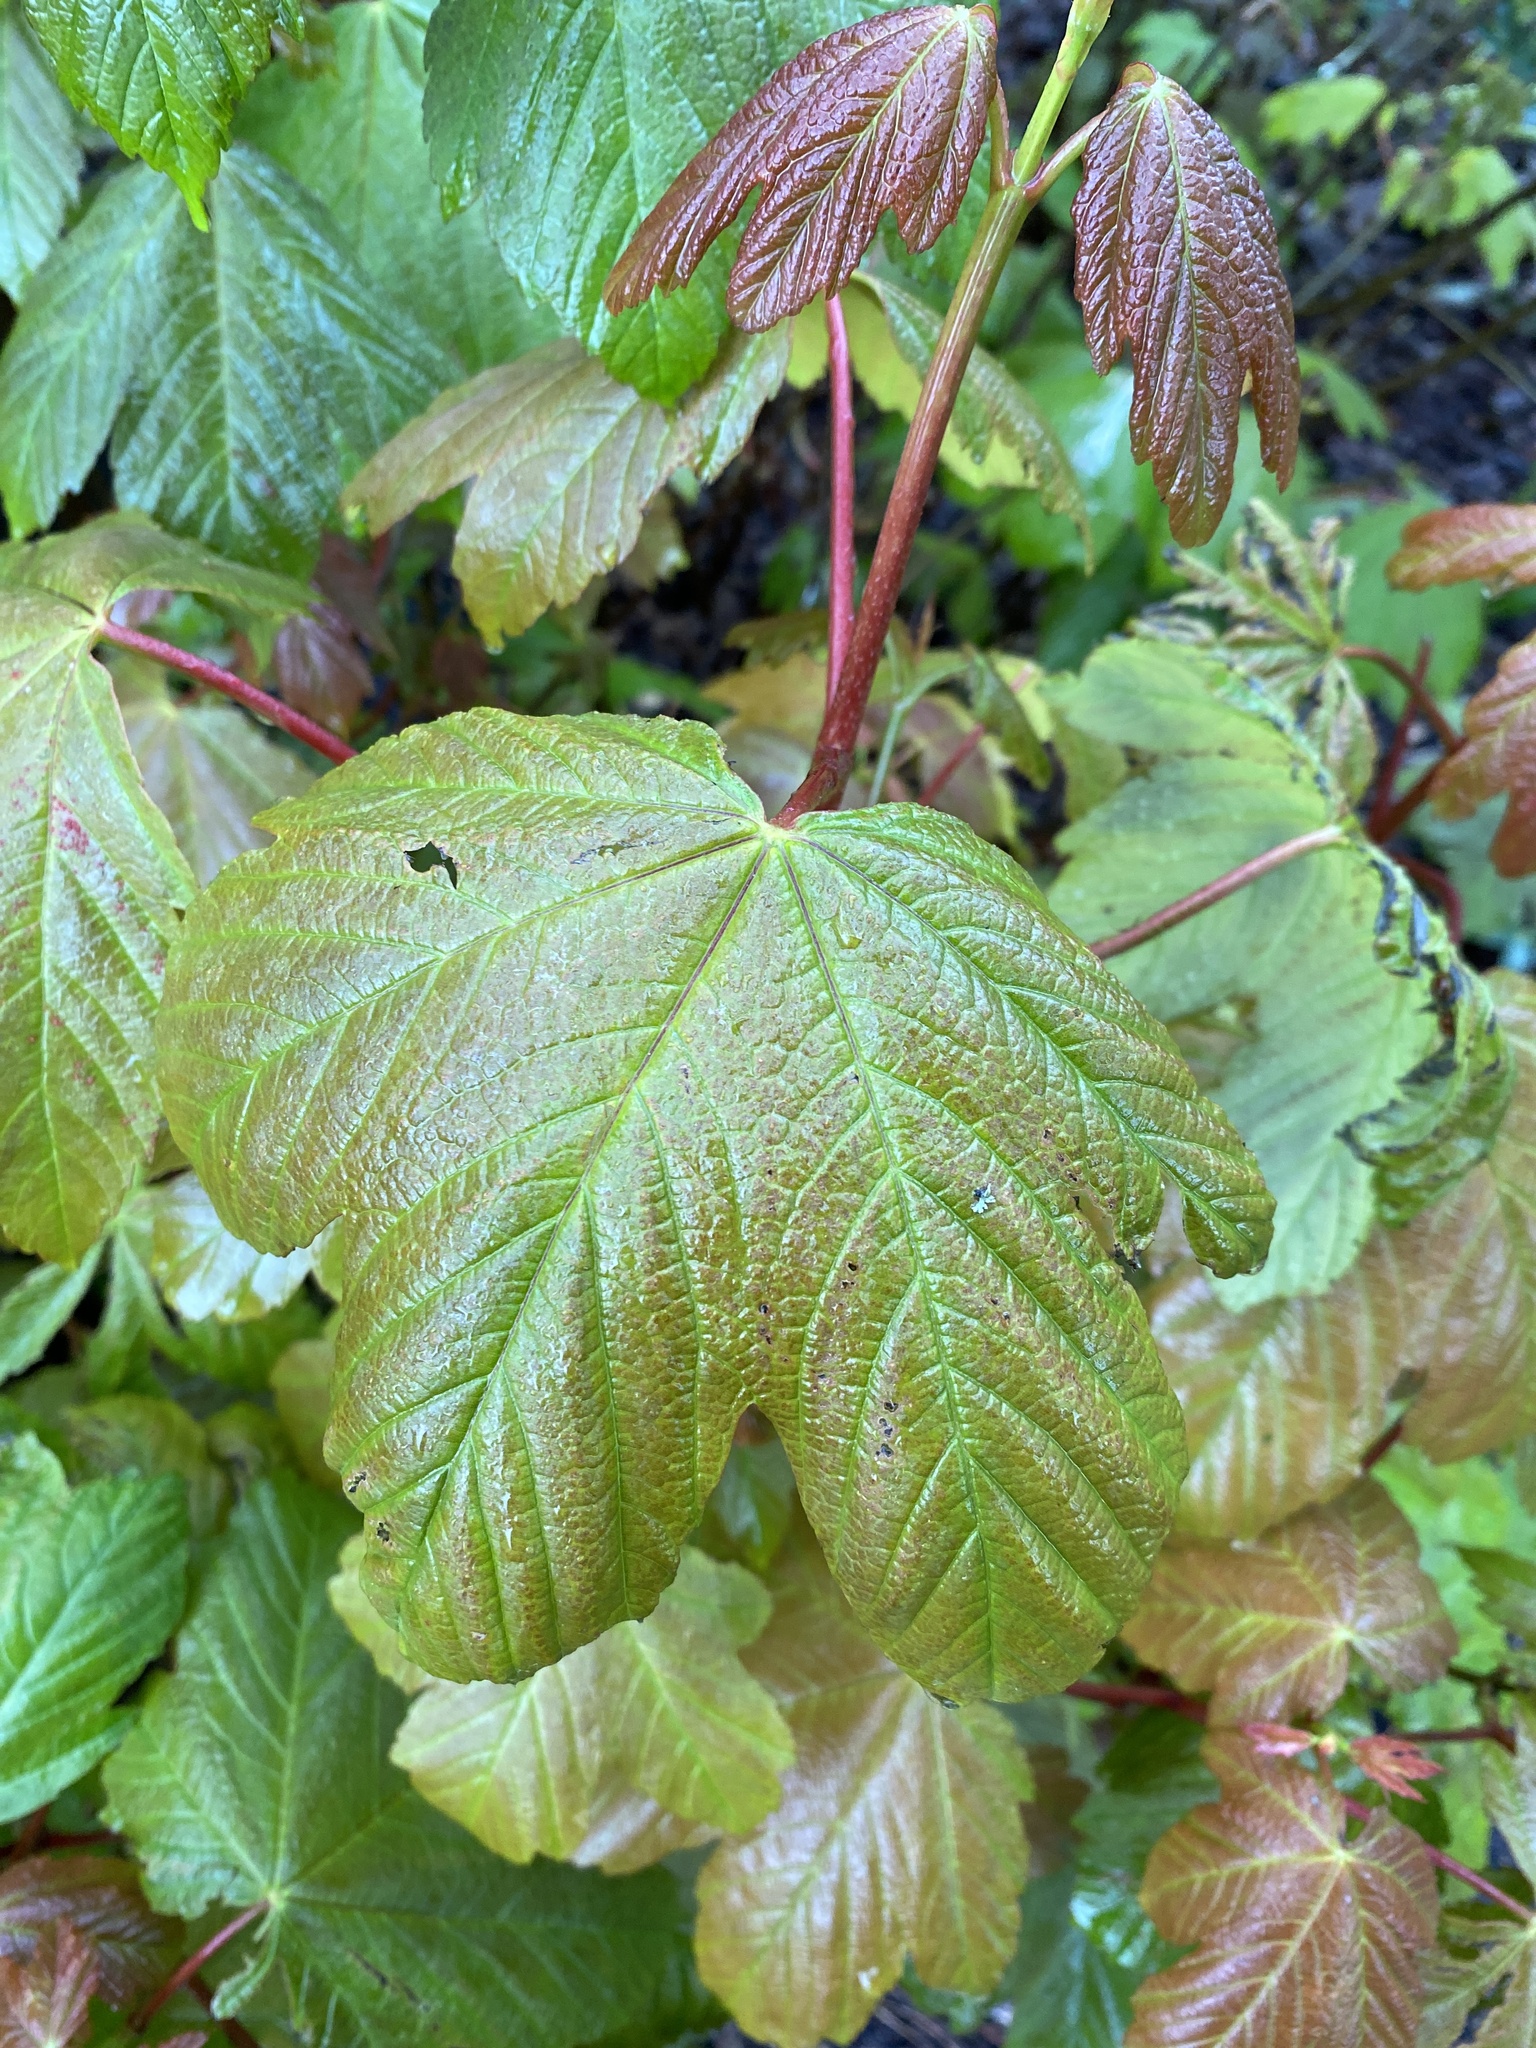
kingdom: Plantae
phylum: Tracheophyta
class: Magnoliopsida
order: Sapindales
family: Sapindaceae
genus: Acer
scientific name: Acer pseudoplatanus
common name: Sycamore
